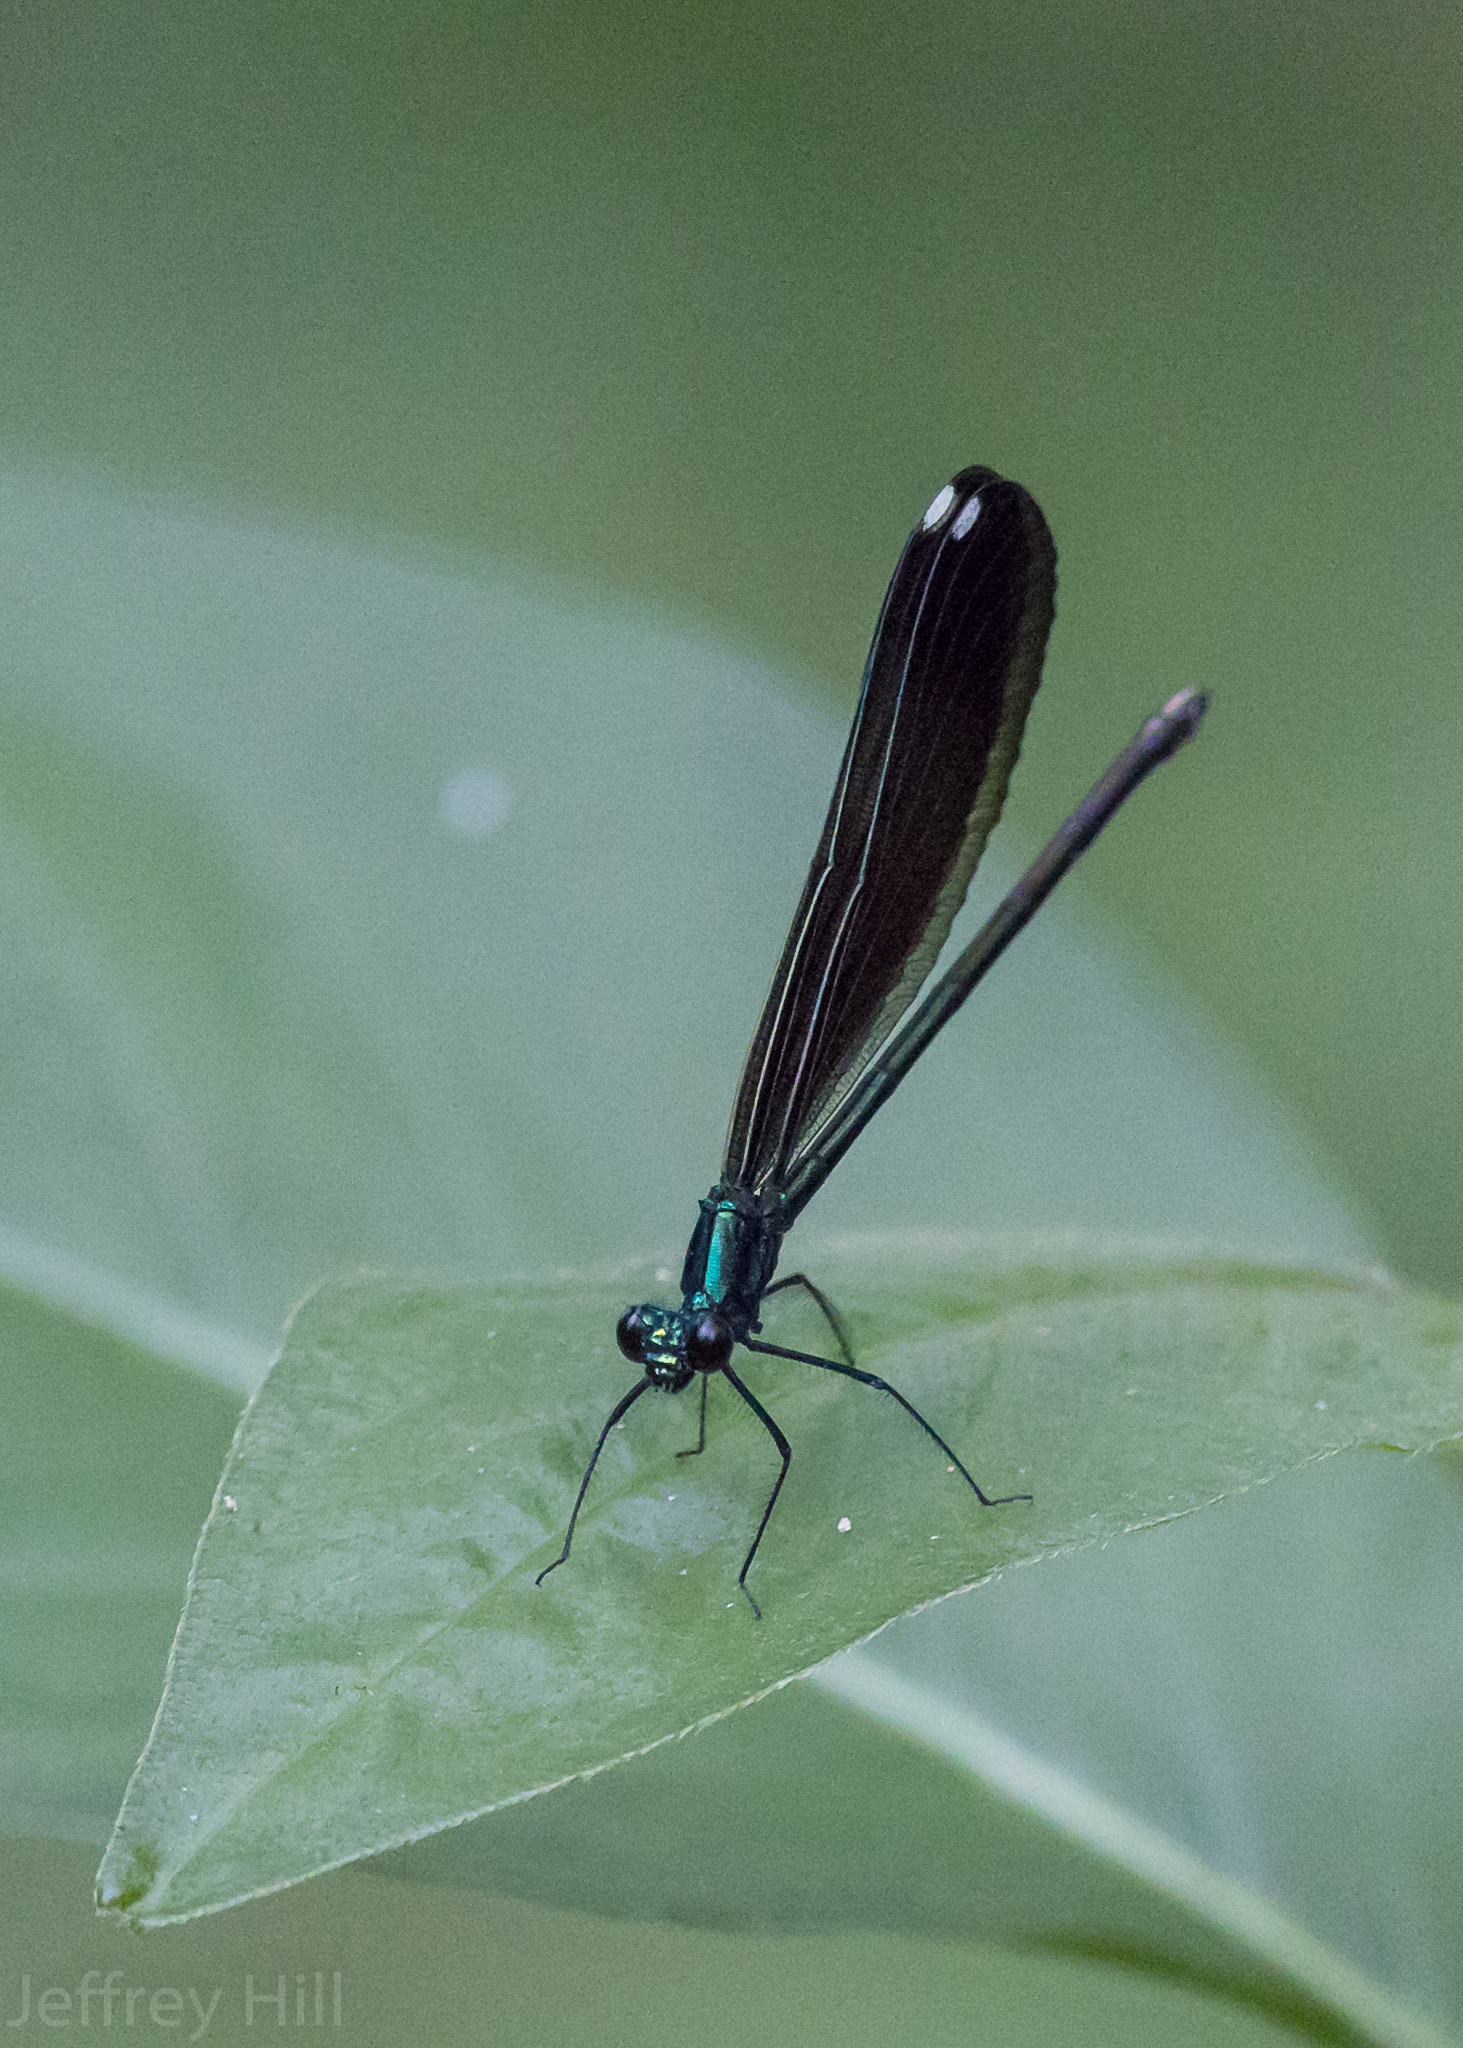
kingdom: Animalia
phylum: Arthropoda
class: Insecta
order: Odonata
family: Calopterygidae
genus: Calopteryx
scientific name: Calopteryx maculata
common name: Ebony jewelwing
